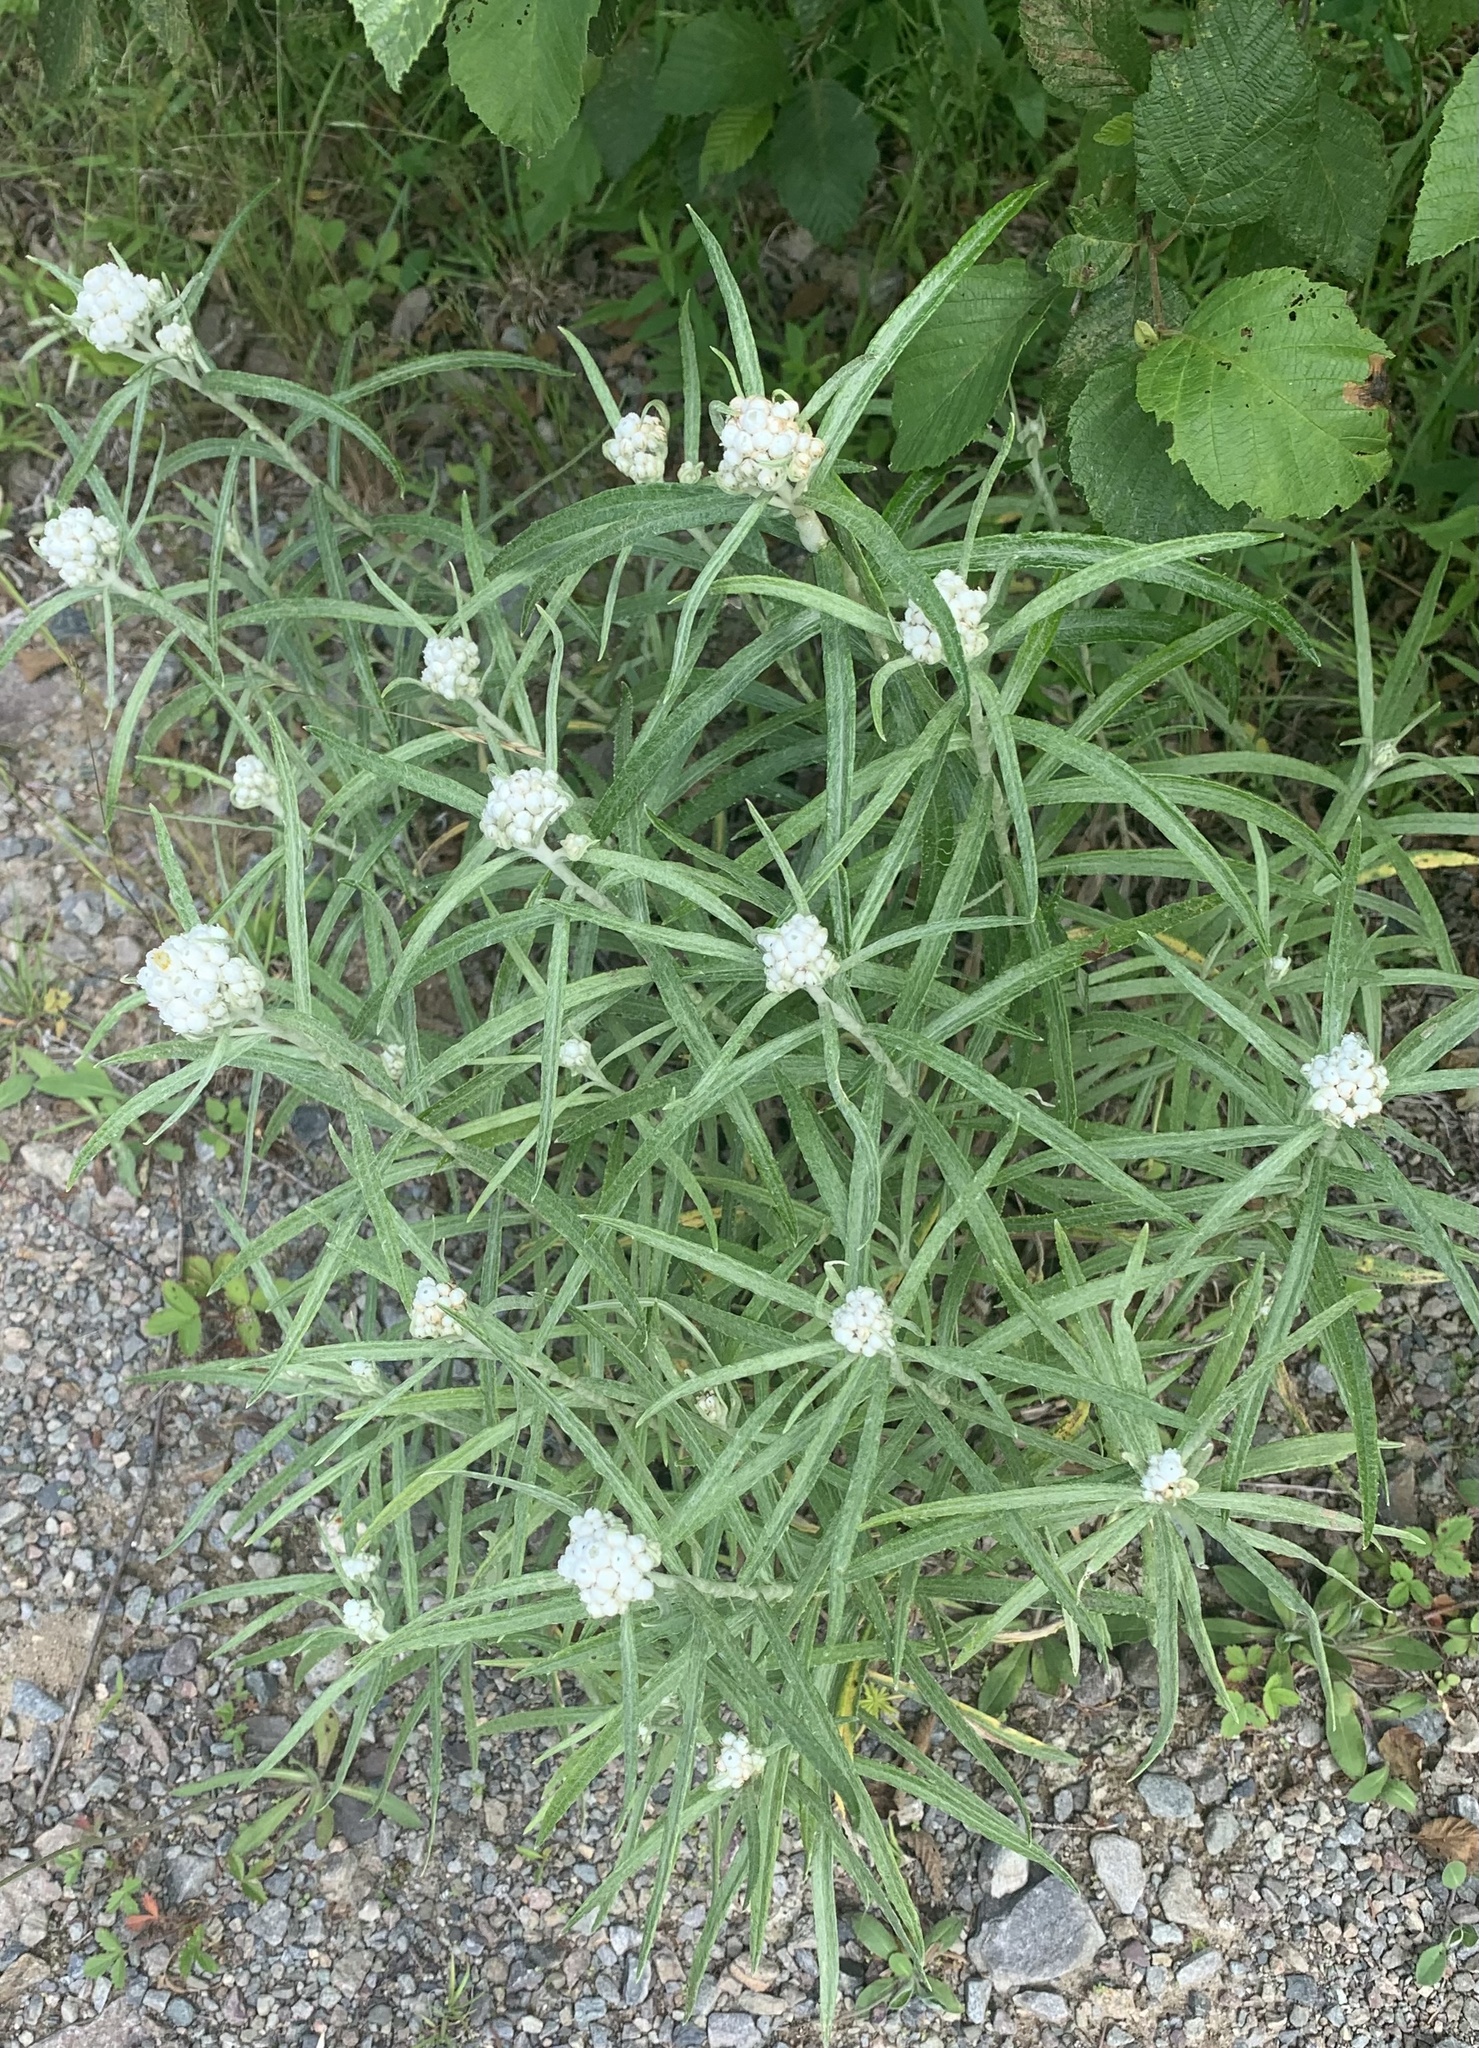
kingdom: Plantae
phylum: Tracheophyta
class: Magnoliopsida
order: Asterales
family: Asteraceae
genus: Anaphalis
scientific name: Anaphalis margaritacea
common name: Pearly everlasting
